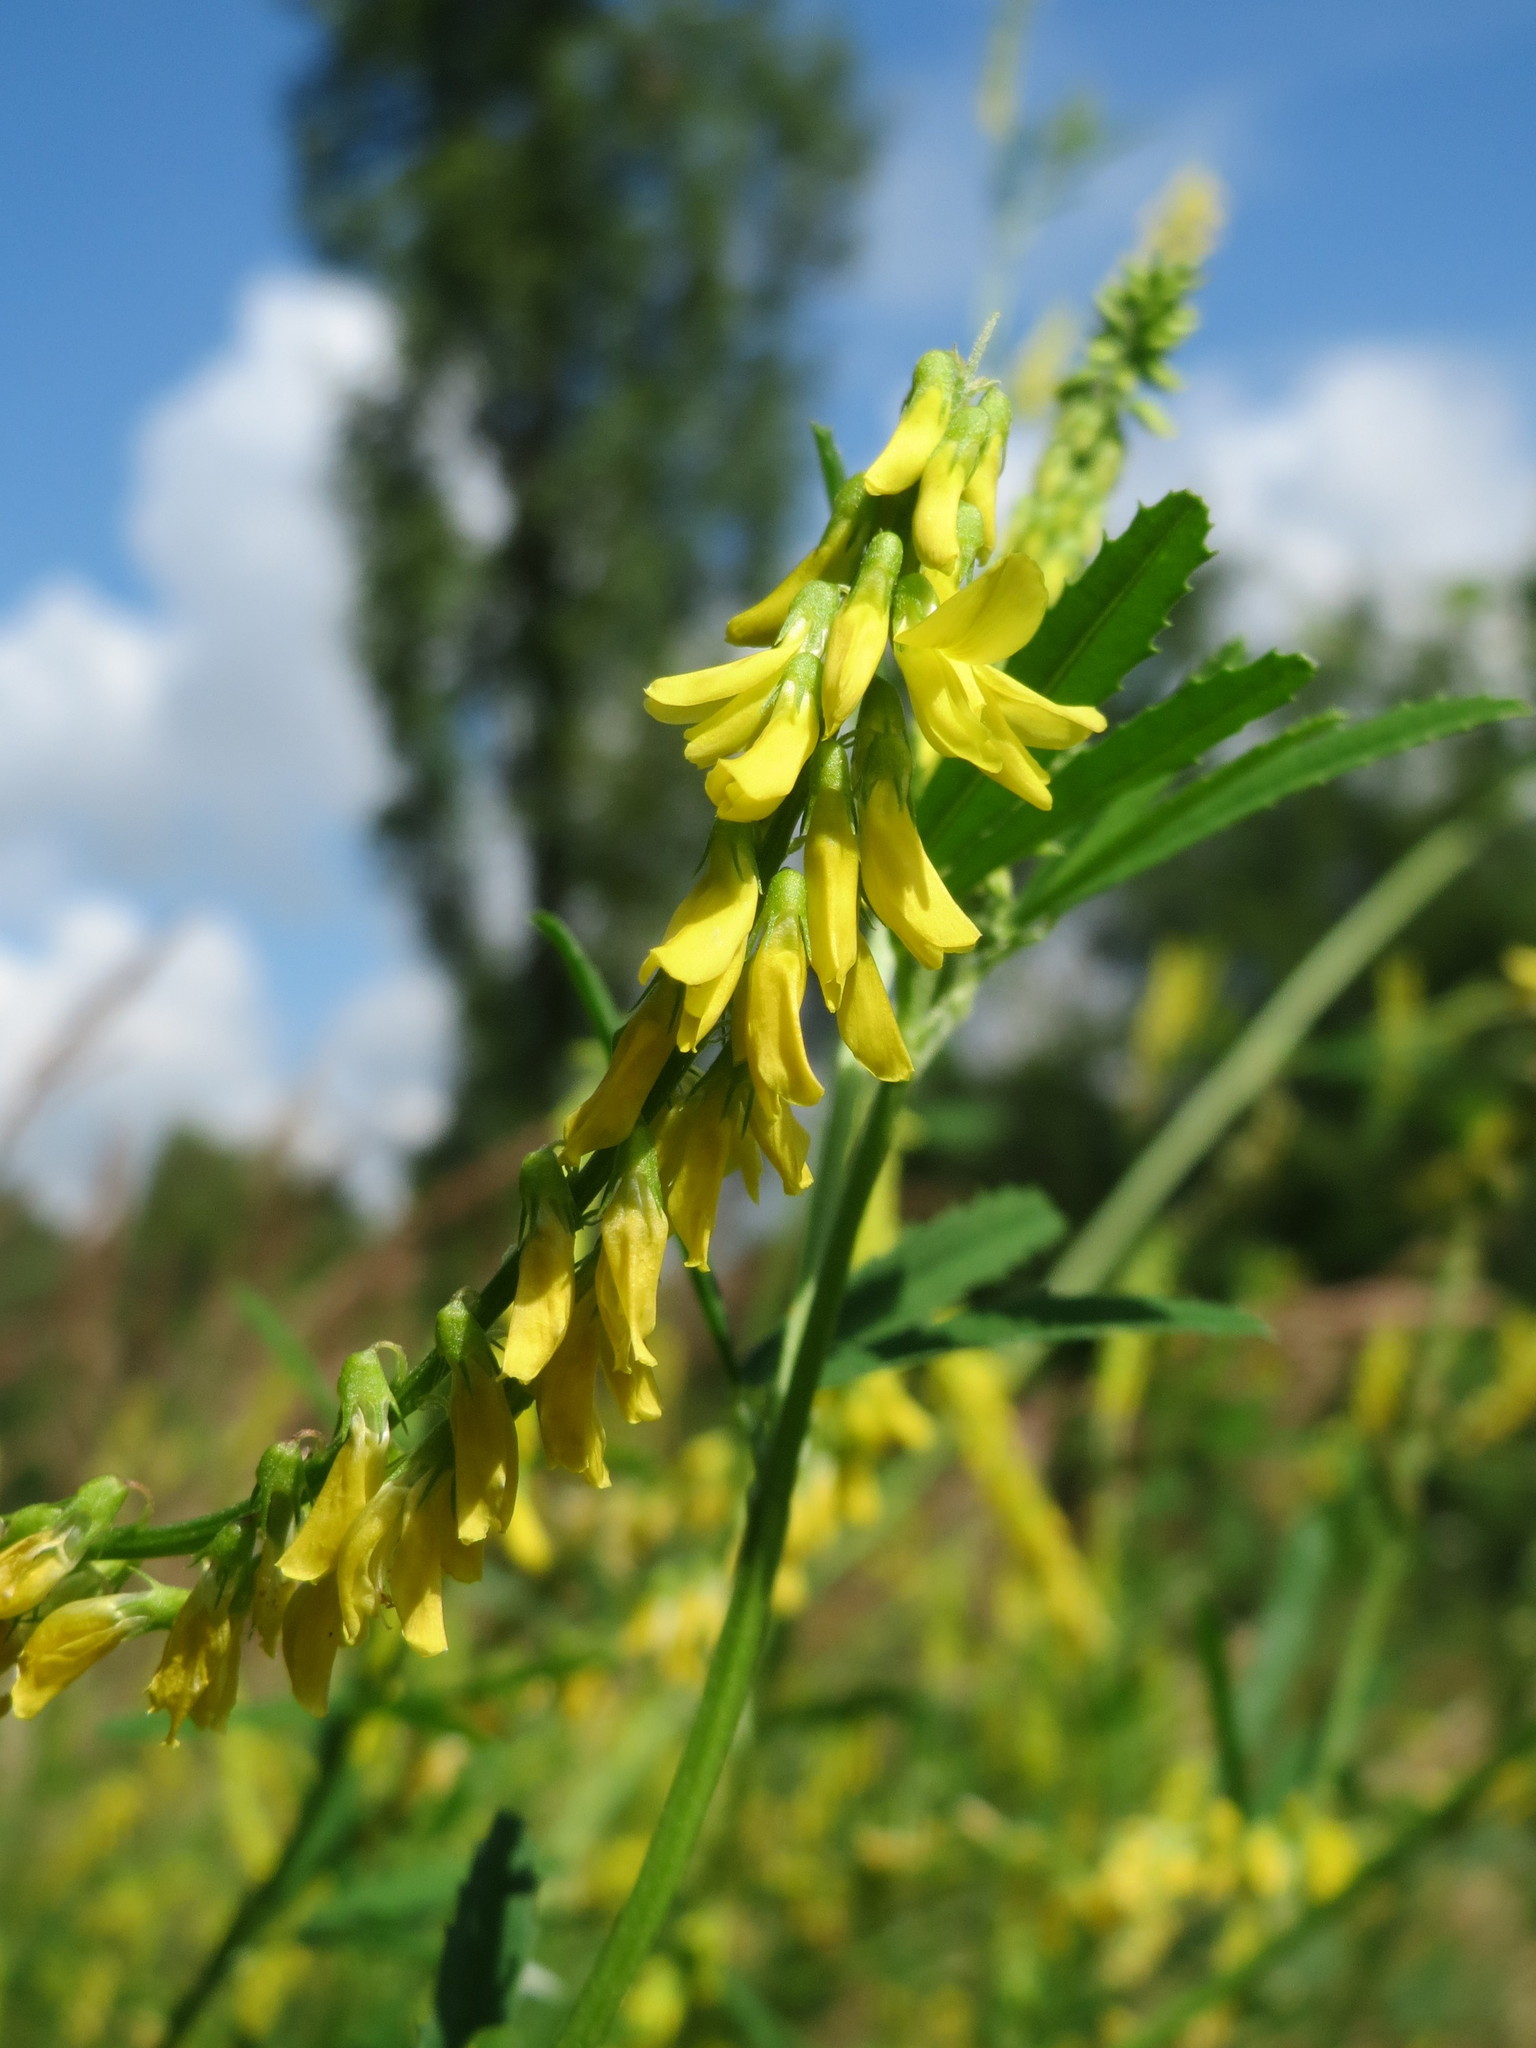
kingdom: Plantae
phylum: Tracheophyta
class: Magnoliopsida
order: Fabales
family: Fabaceae
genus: Melilotus
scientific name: Melilotus officinalis
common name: Sweetclover
